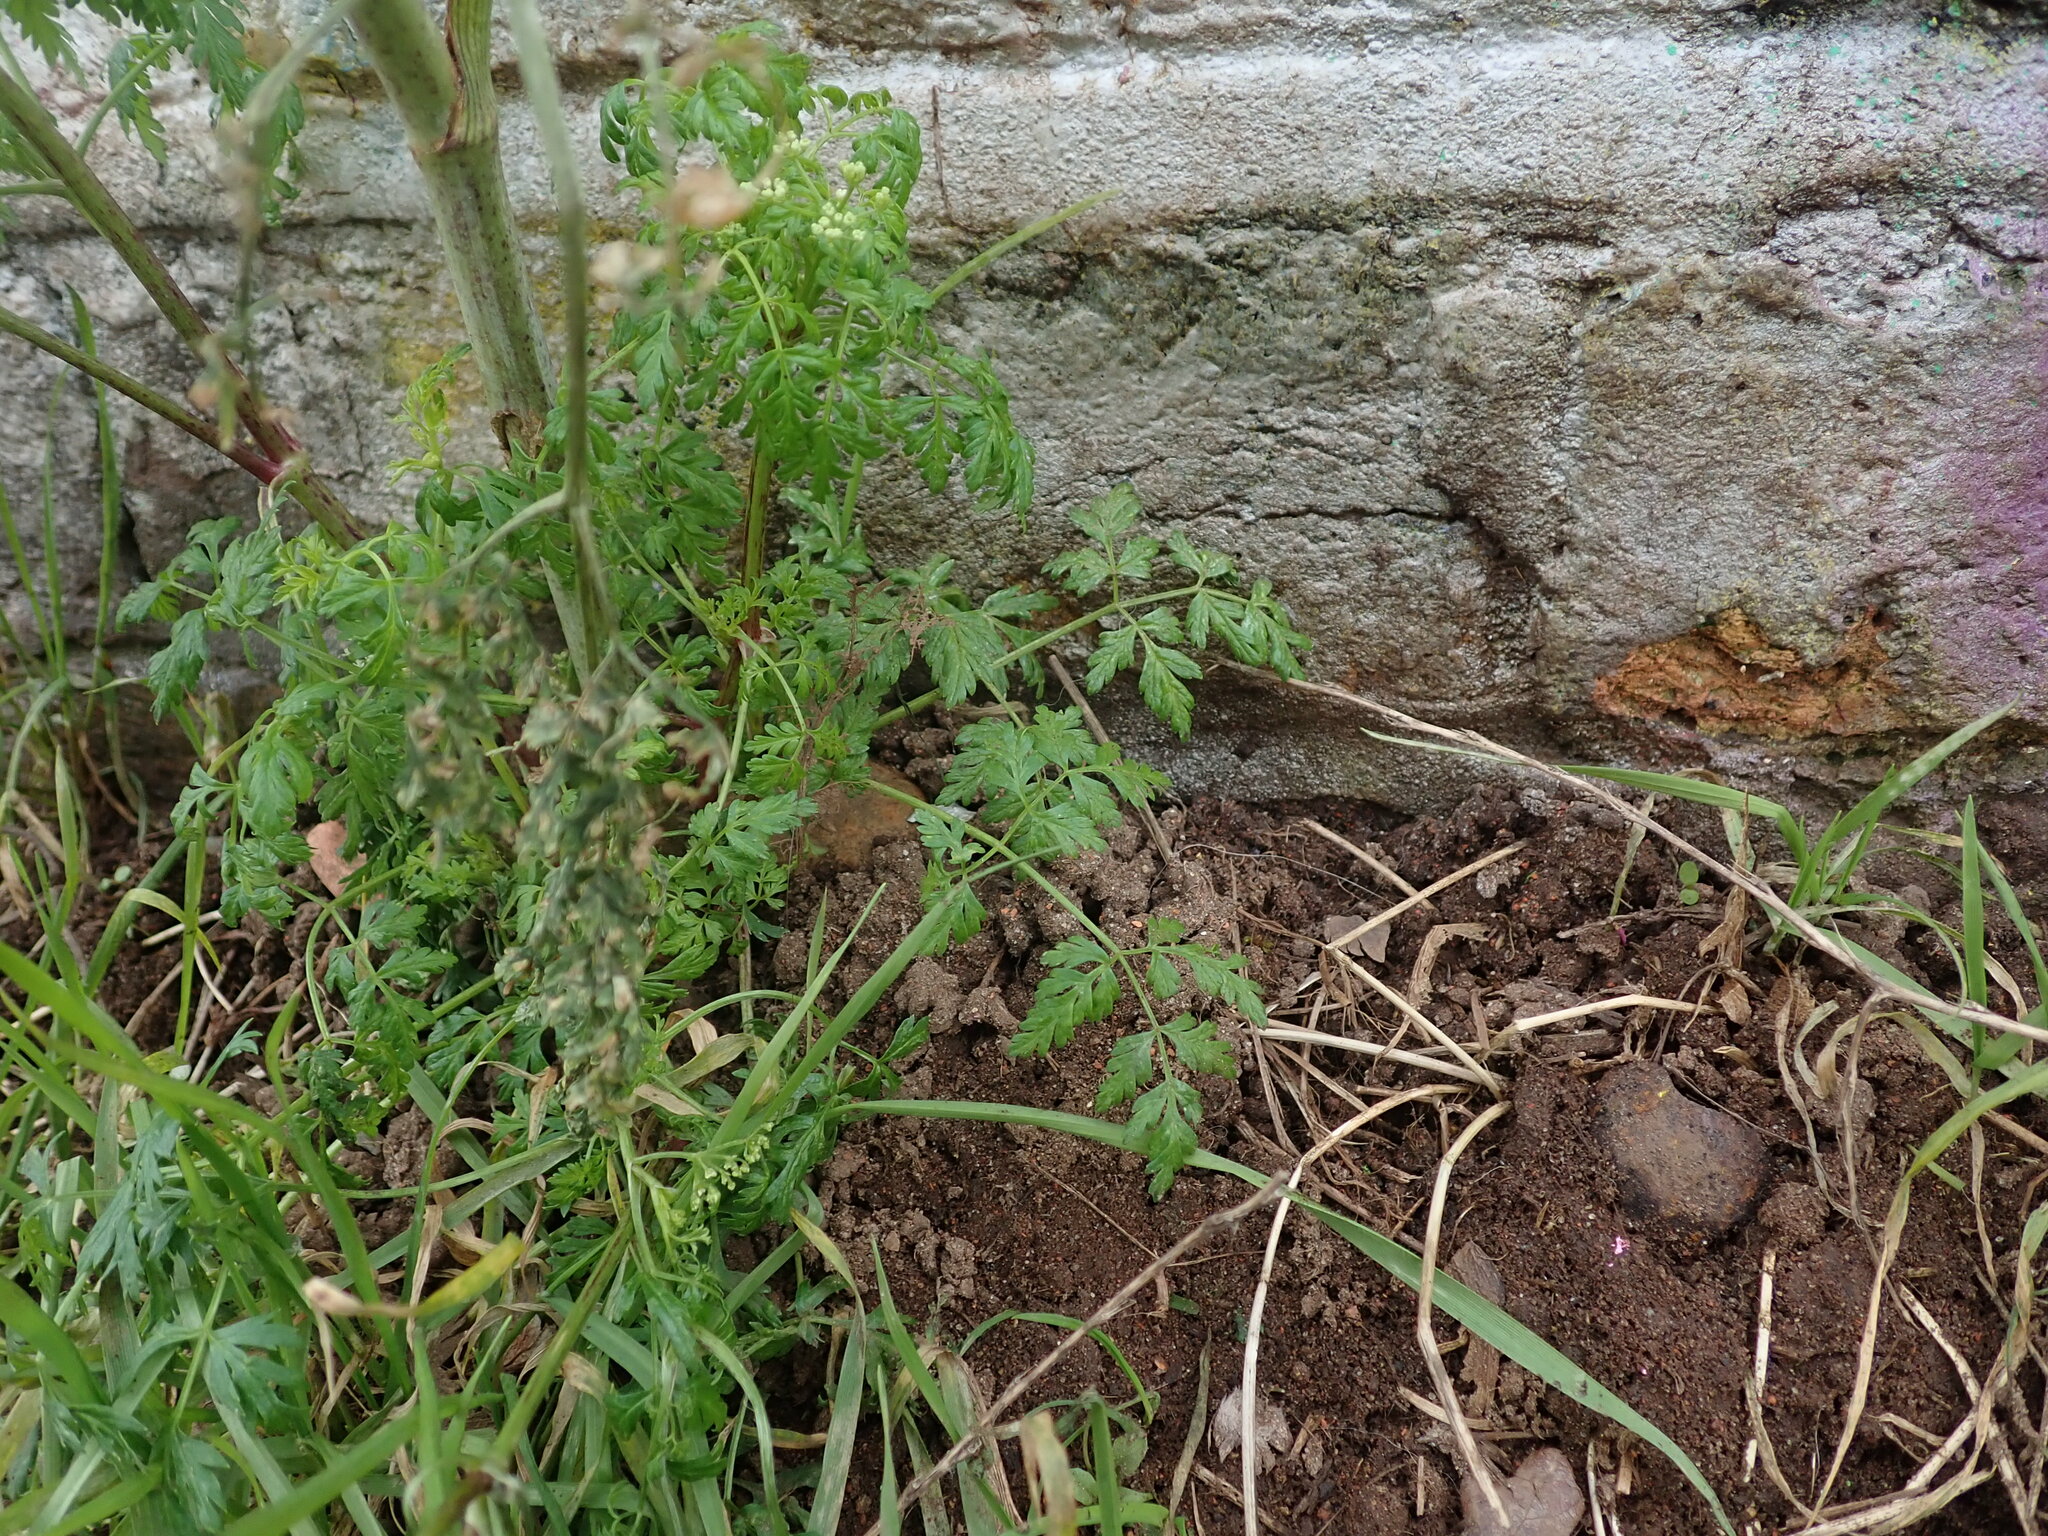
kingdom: Plantae
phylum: Tracheophyta
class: Magnoliopsida
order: Apiales
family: Apiaceae
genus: Conium
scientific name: Conium maculatum
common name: Hemlock
